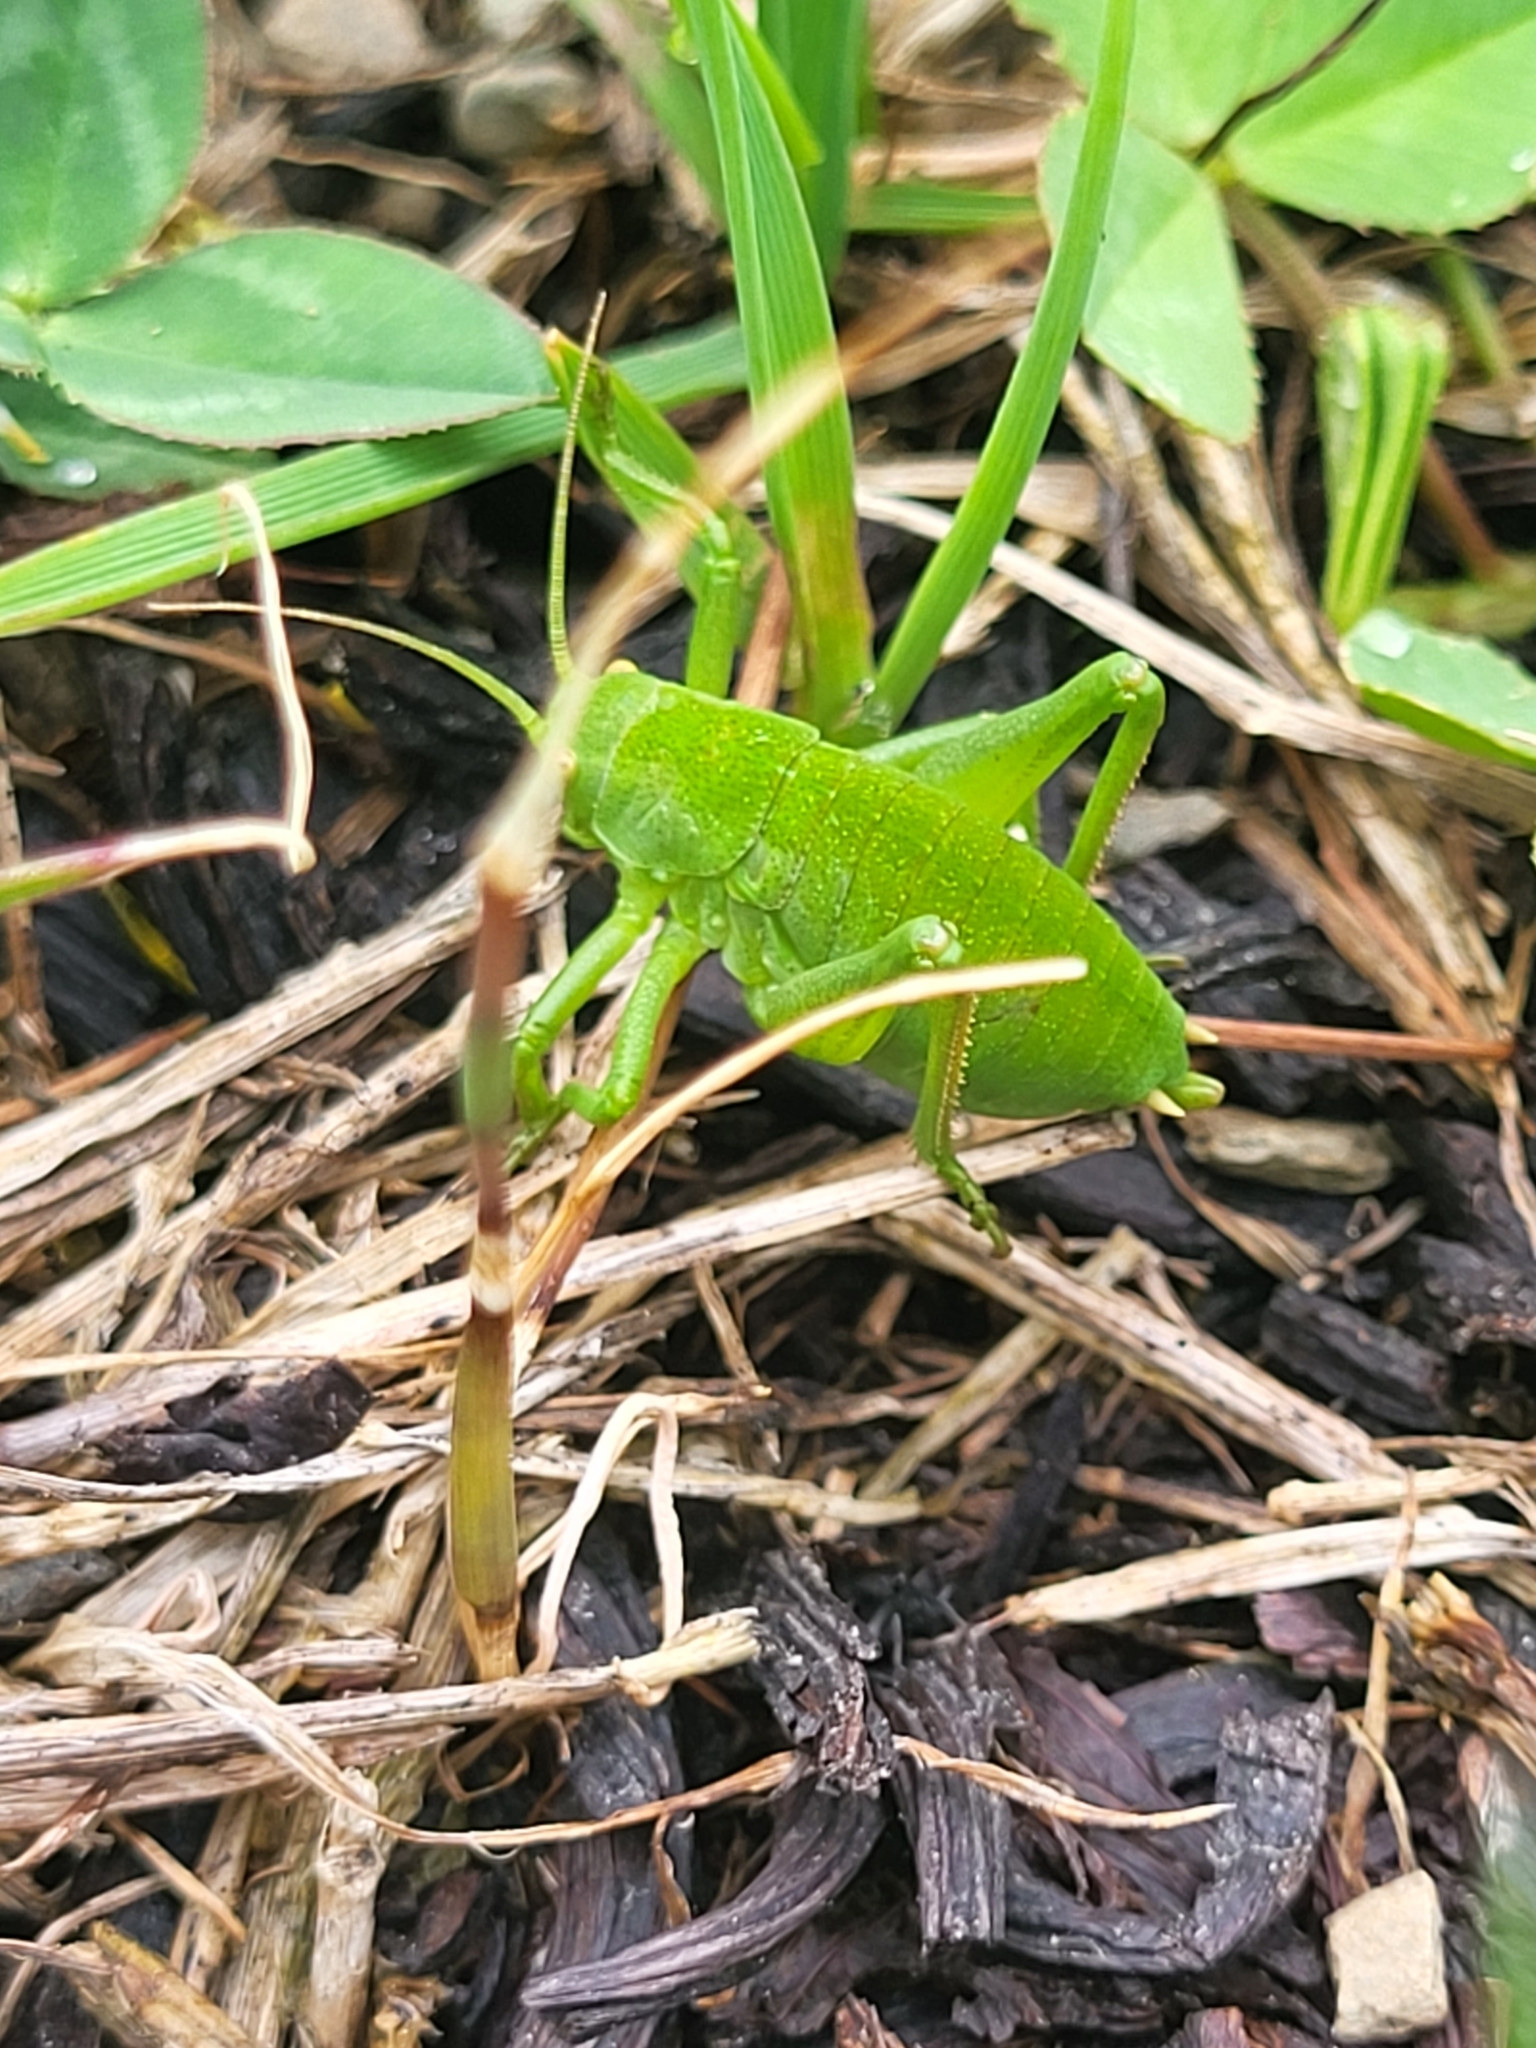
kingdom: Animalia
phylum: Arthropoda
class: Insecta
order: Orthoptera
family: Tettigoniidae
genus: Polysarcus
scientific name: Polysarcus zacharovi
